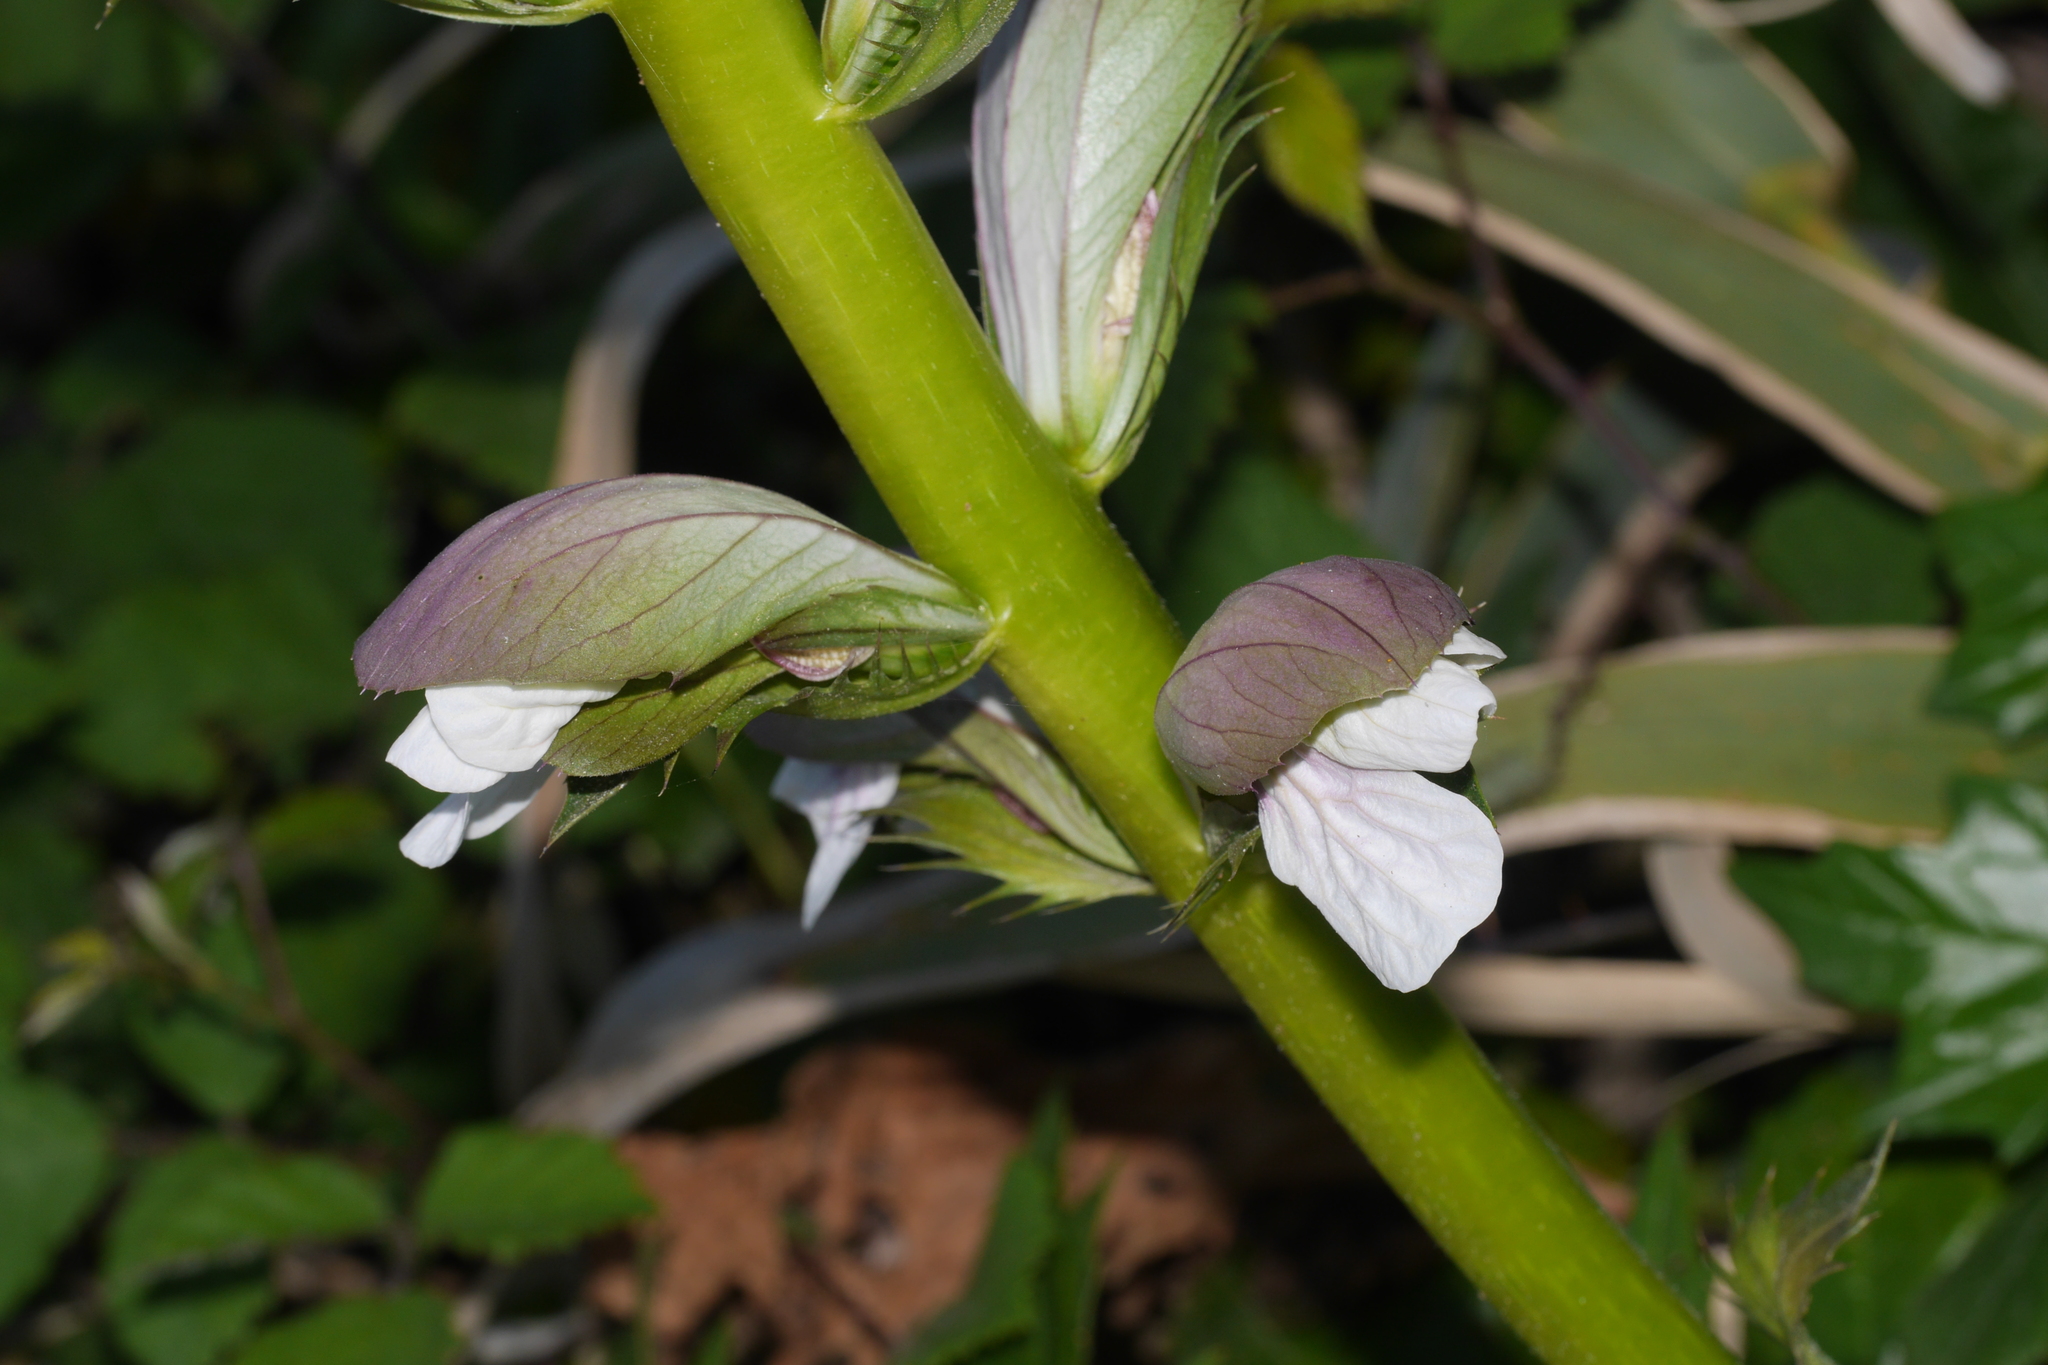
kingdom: Plantae
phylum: Tracheophyta
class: Magnoliopsida
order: Lamiales
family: Acanthaceae
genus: Acanthus
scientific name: Acanthus mollis
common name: Bear's-breech
